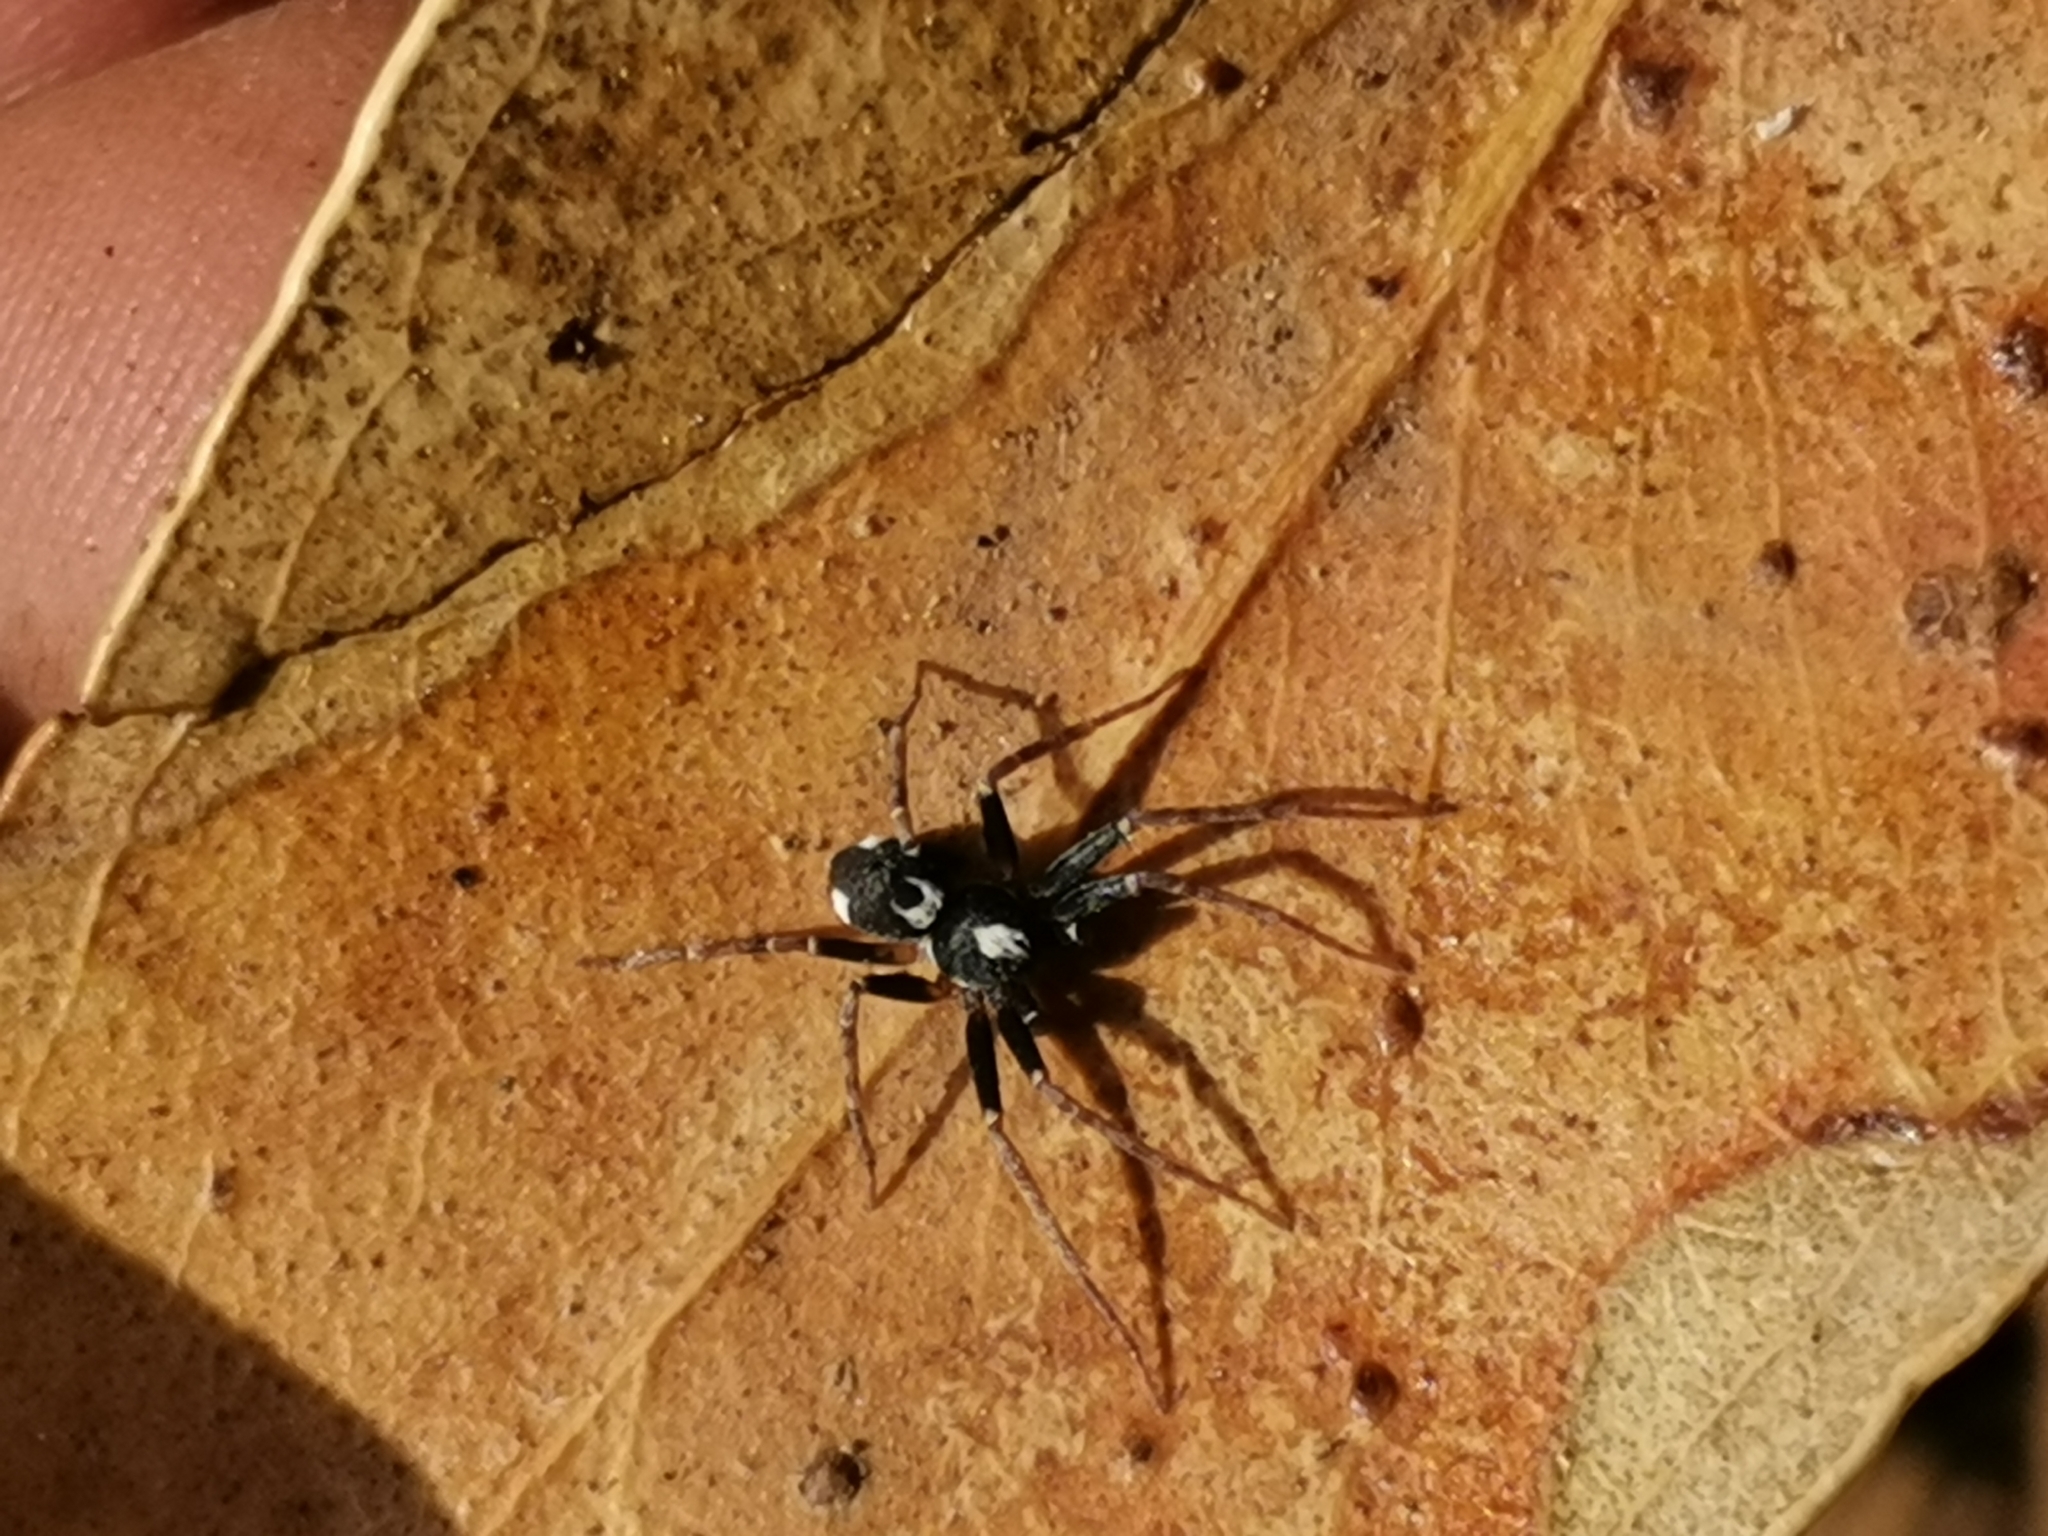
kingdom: Animalia
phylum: Arthropoda
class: Arachnida
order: Araneae
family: Philodromidae
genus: Pulchellodromus
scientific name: Pulchellodromus bistigma
